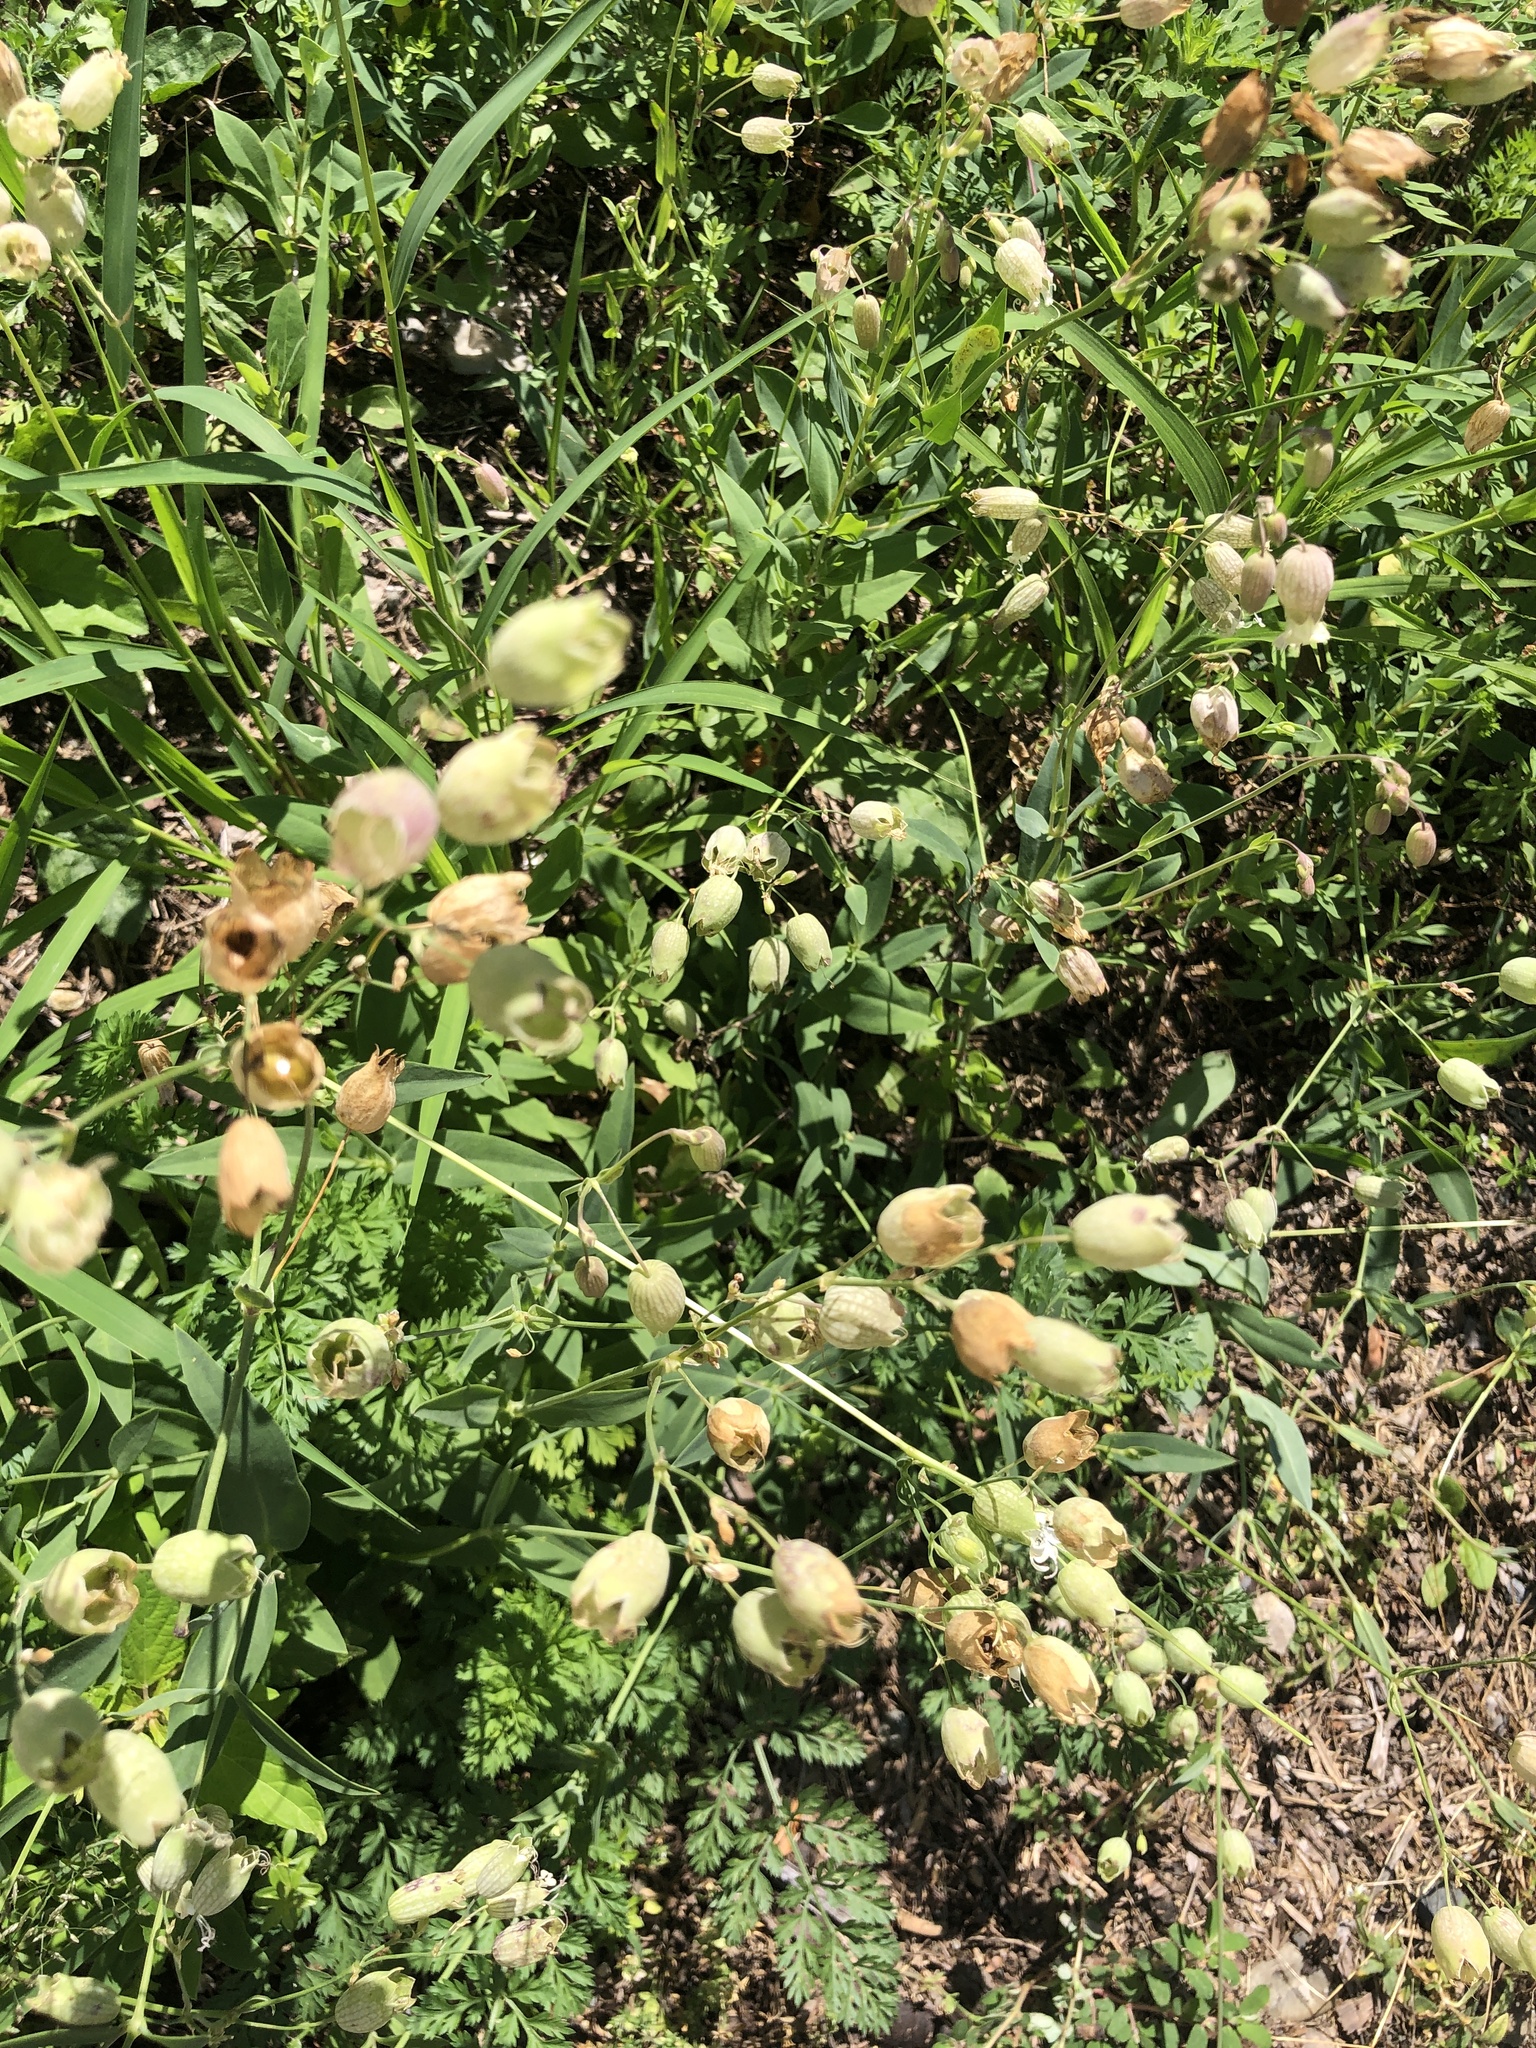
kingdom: Plantae
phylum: Tracheophyta
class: Magnoliopsida
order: Caryophyllales
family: Caryophyllaceae
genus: Silene
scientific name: Silene vulgaris
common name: Bladder campion
